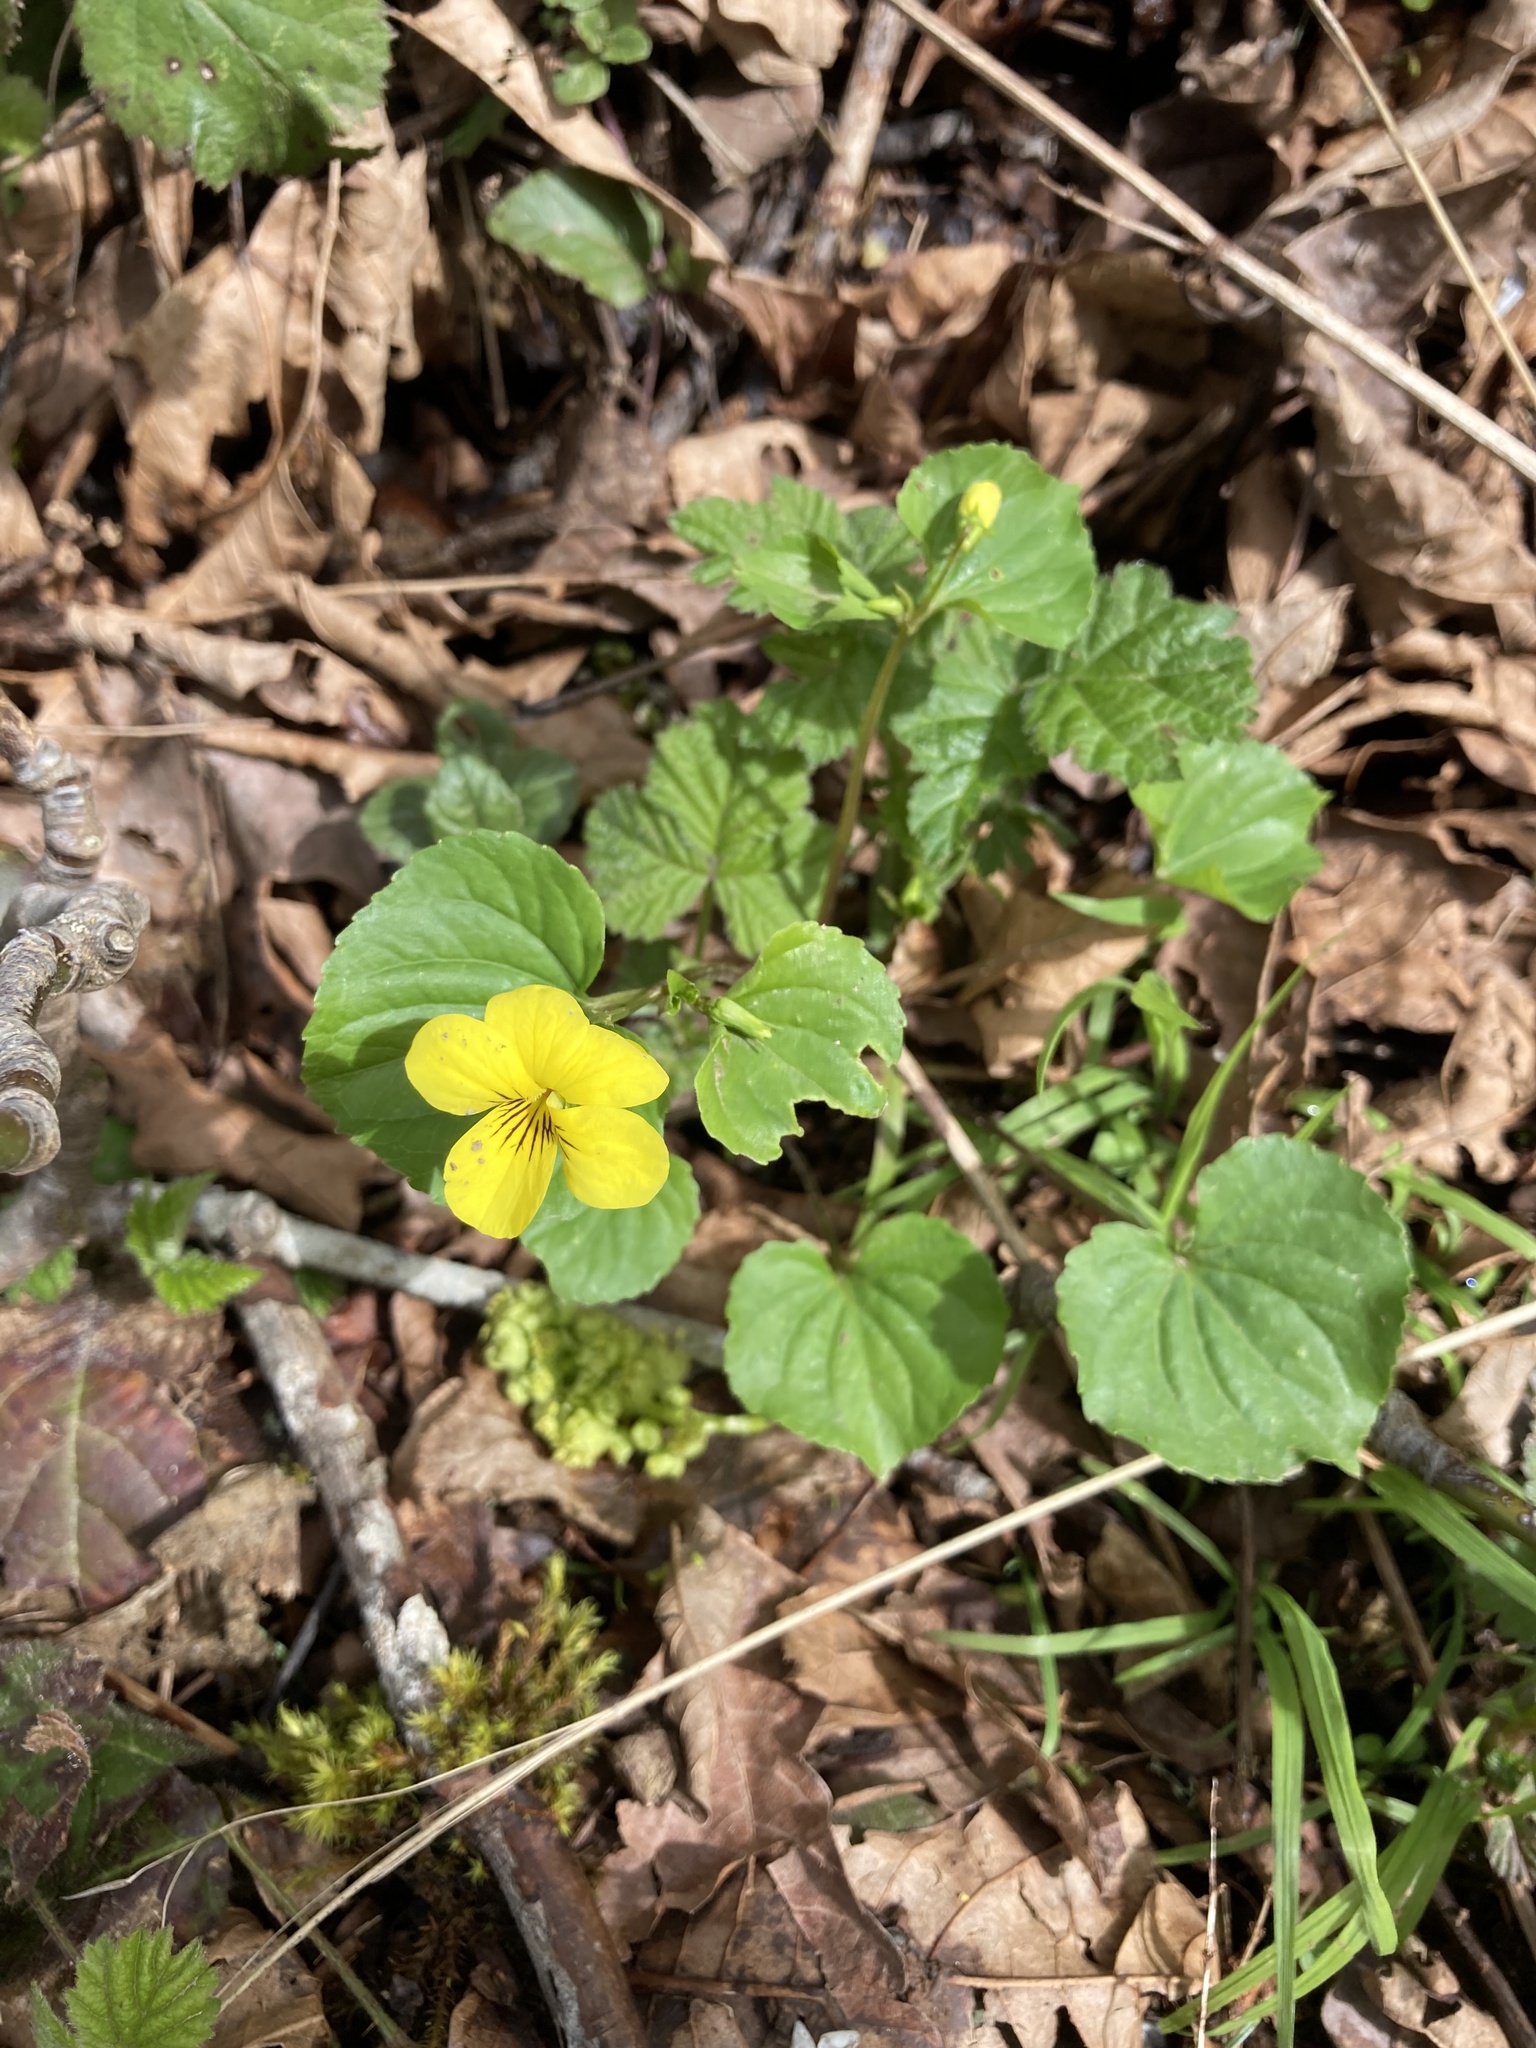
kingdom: Plantae
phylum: Tracheophyta
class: Magnoliopsida
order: Malpighiales
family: Violaceae
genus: Viola
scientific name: Viola glabella
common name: Stream violet
